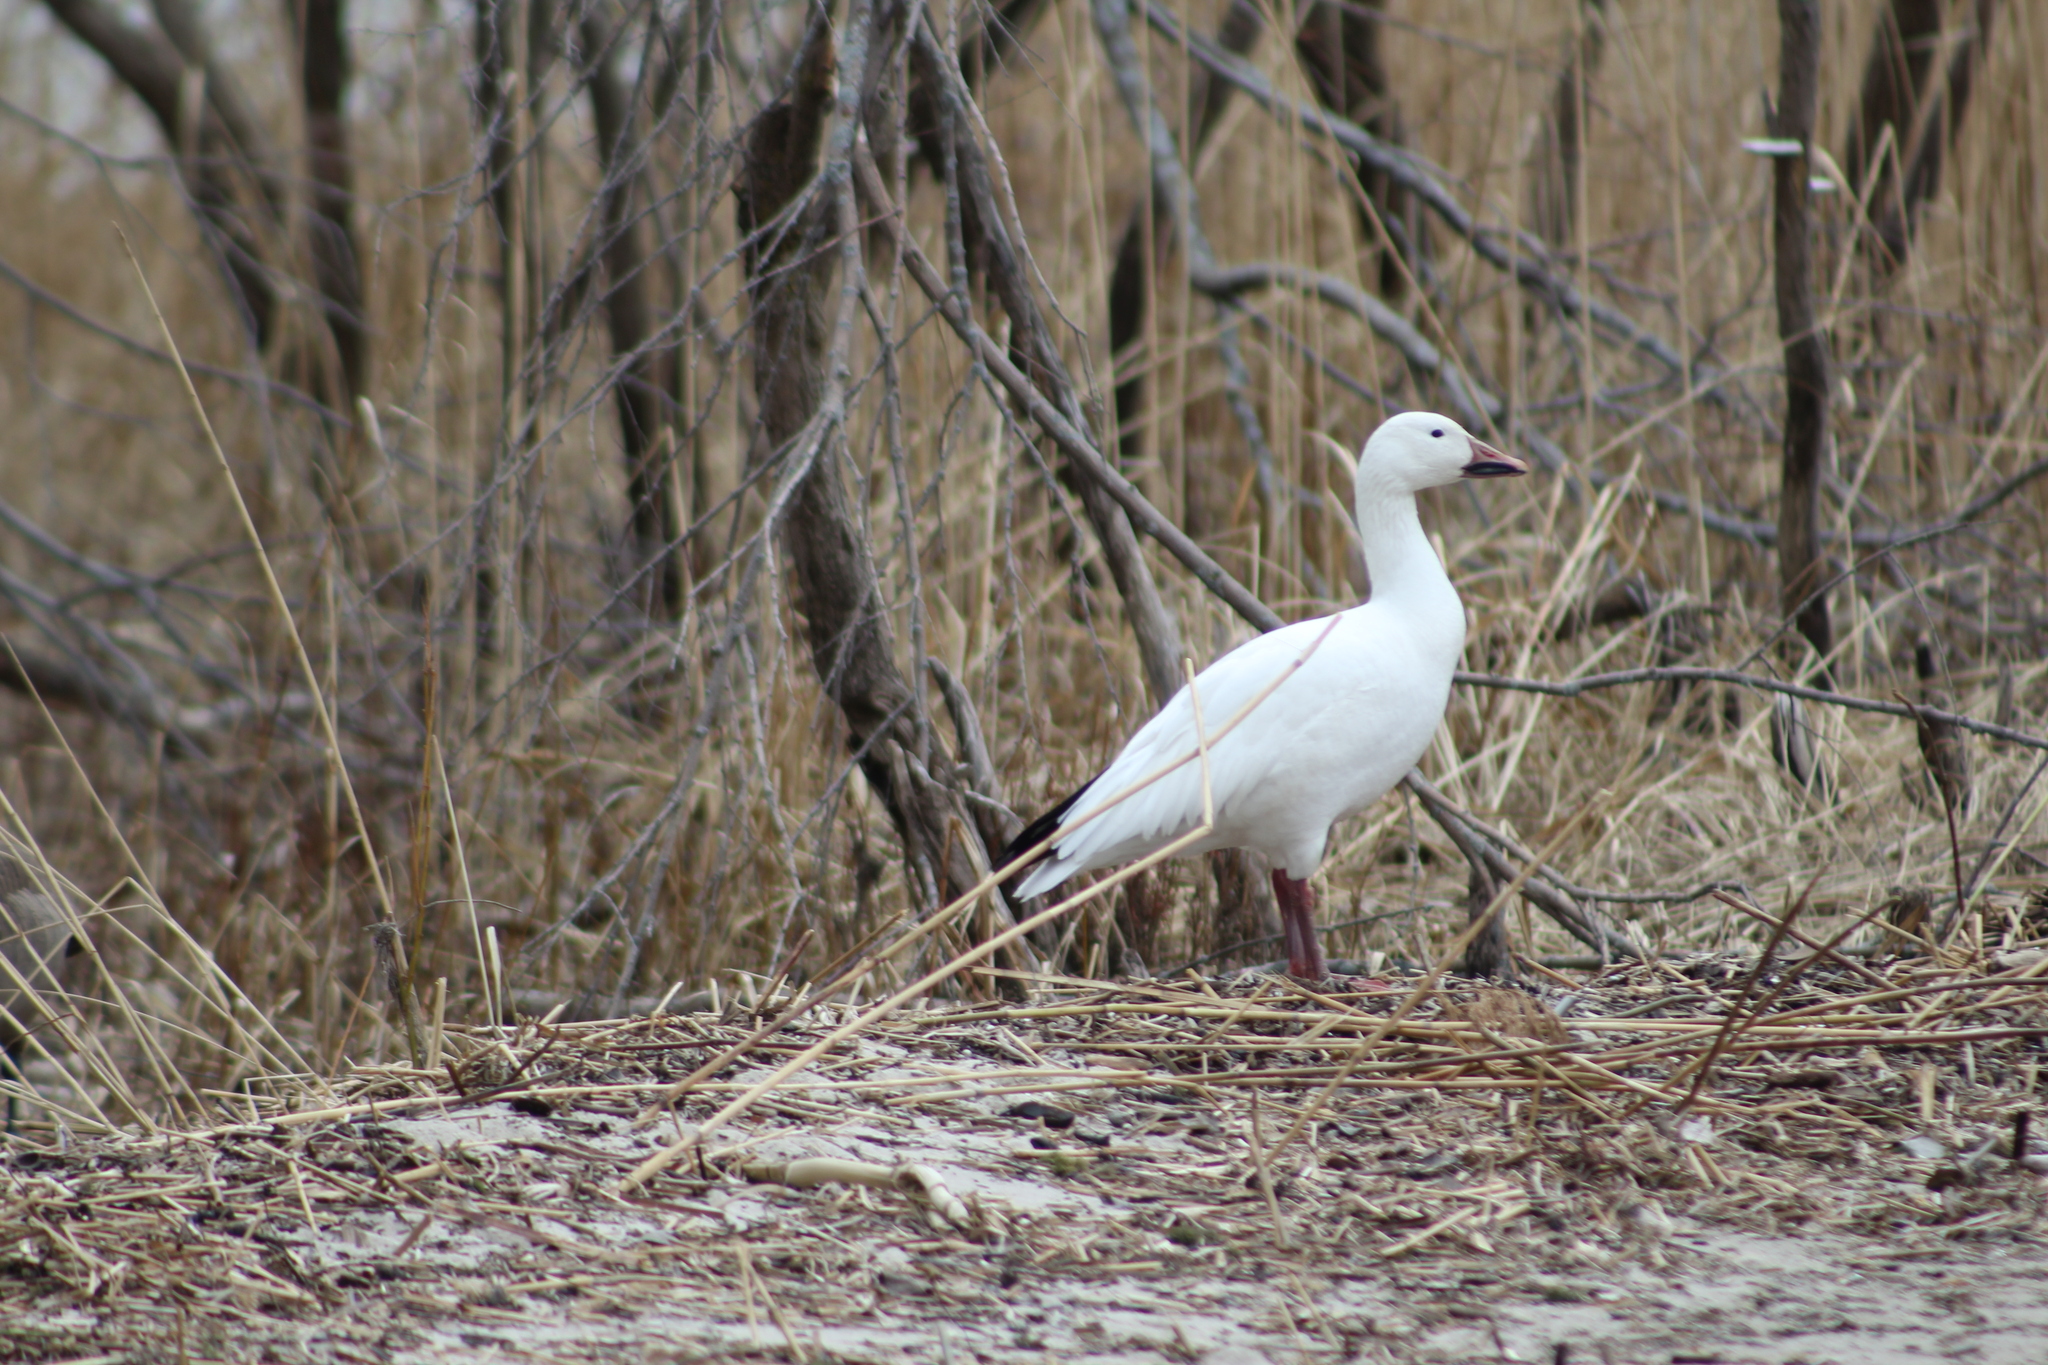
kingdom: Animalia
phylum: Chordata
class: Aves
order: Anseriformes
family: Anatidae
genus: Anser
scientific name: Anser caerulescens
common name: Snow goose
